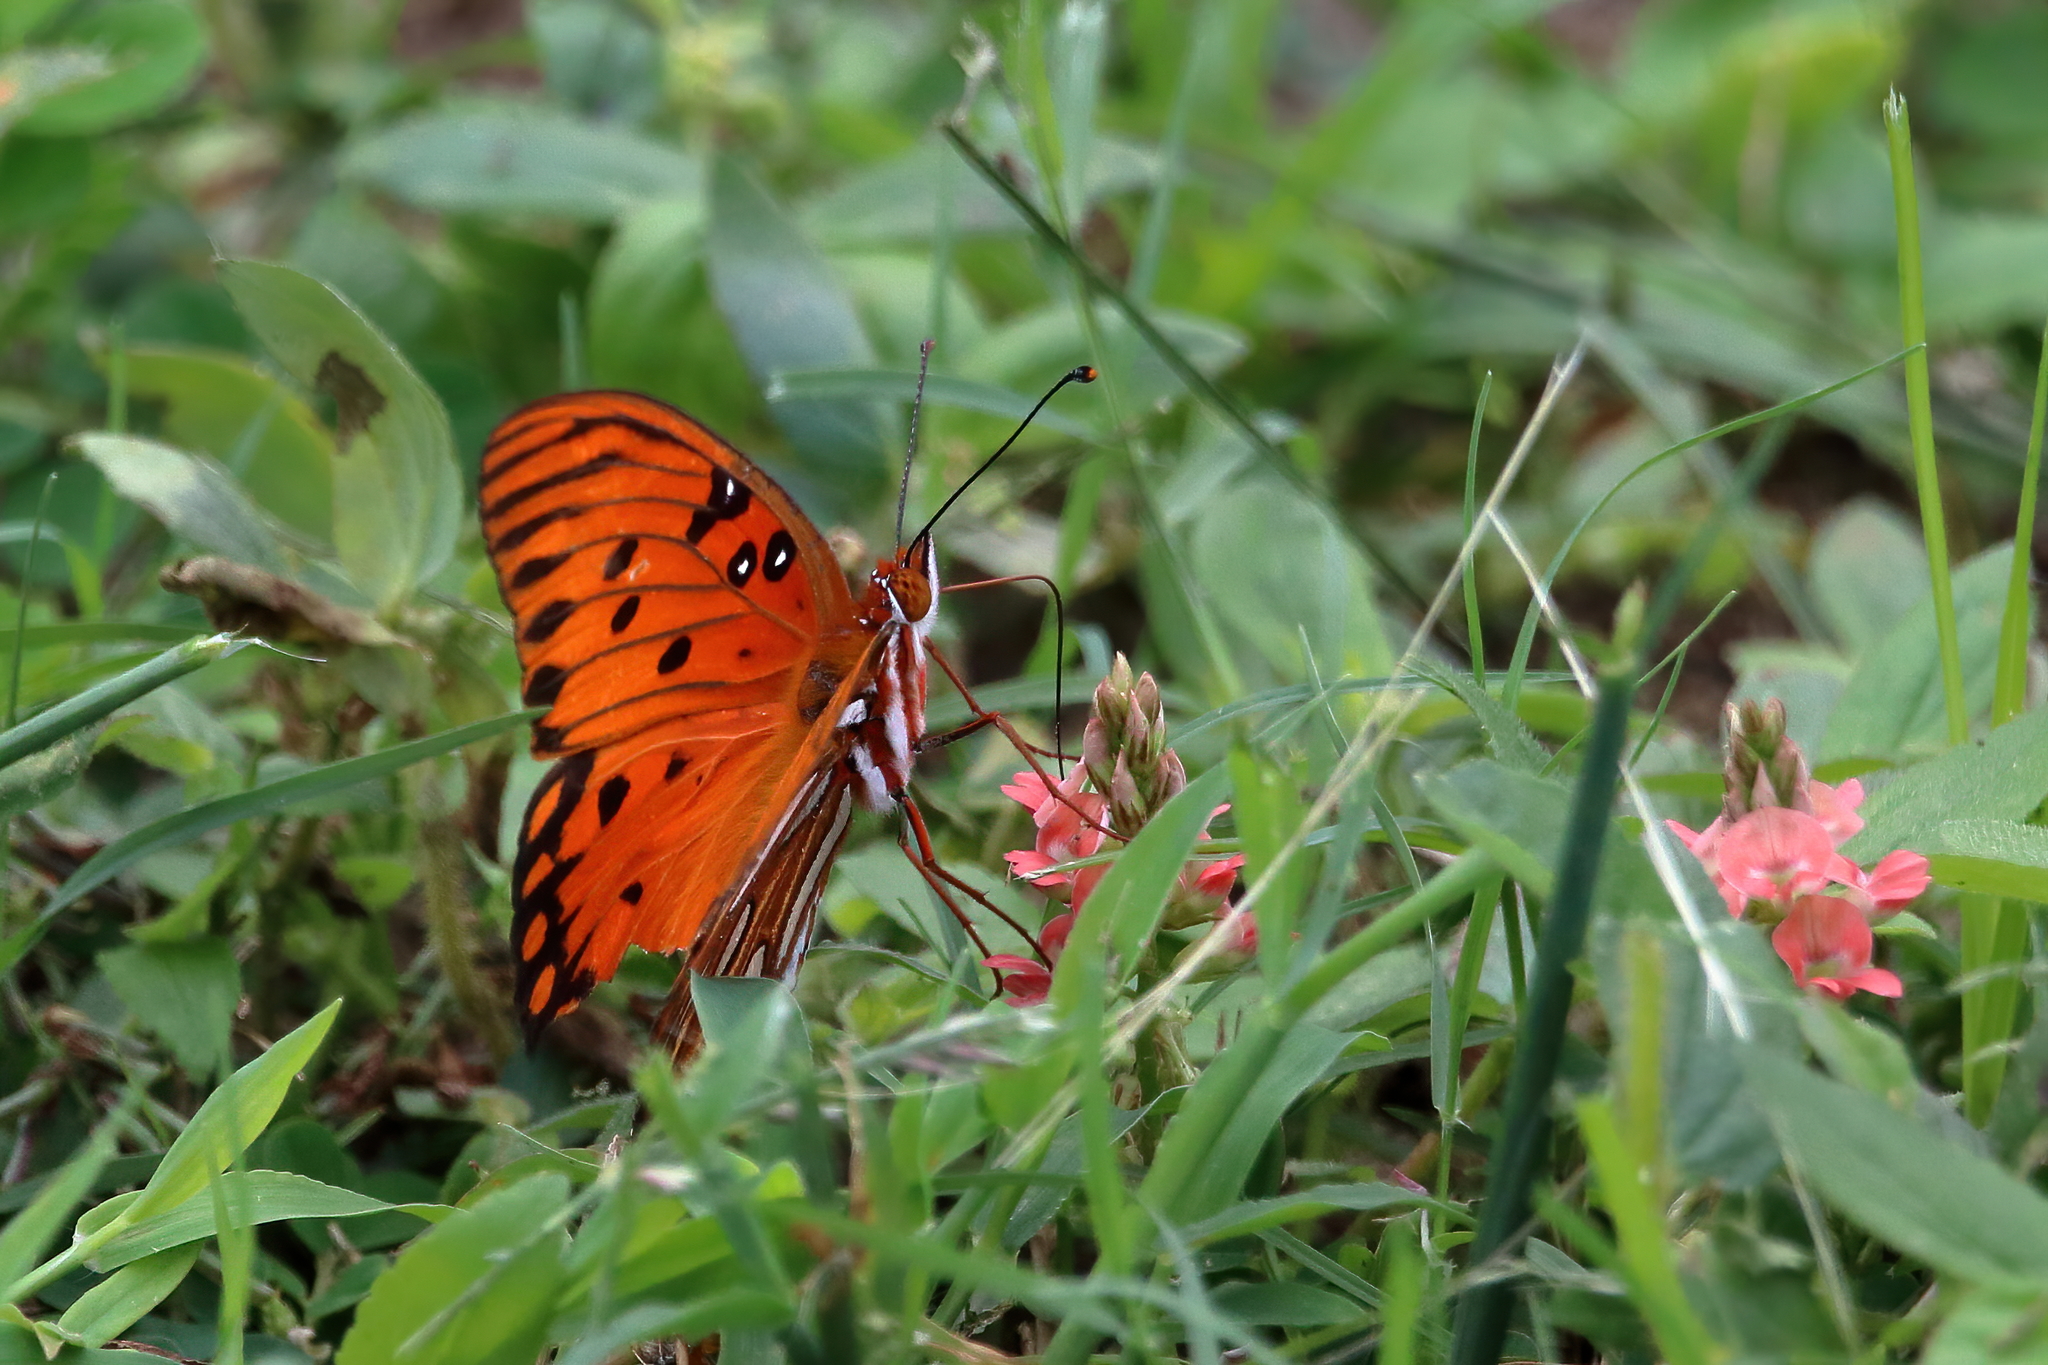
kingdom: Animalia
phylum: Arthropoda
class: Insecta
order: Lepidoptera
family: Nymphalidae
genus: Dione
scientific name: Dione vanillae
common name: Gulf fritillary
